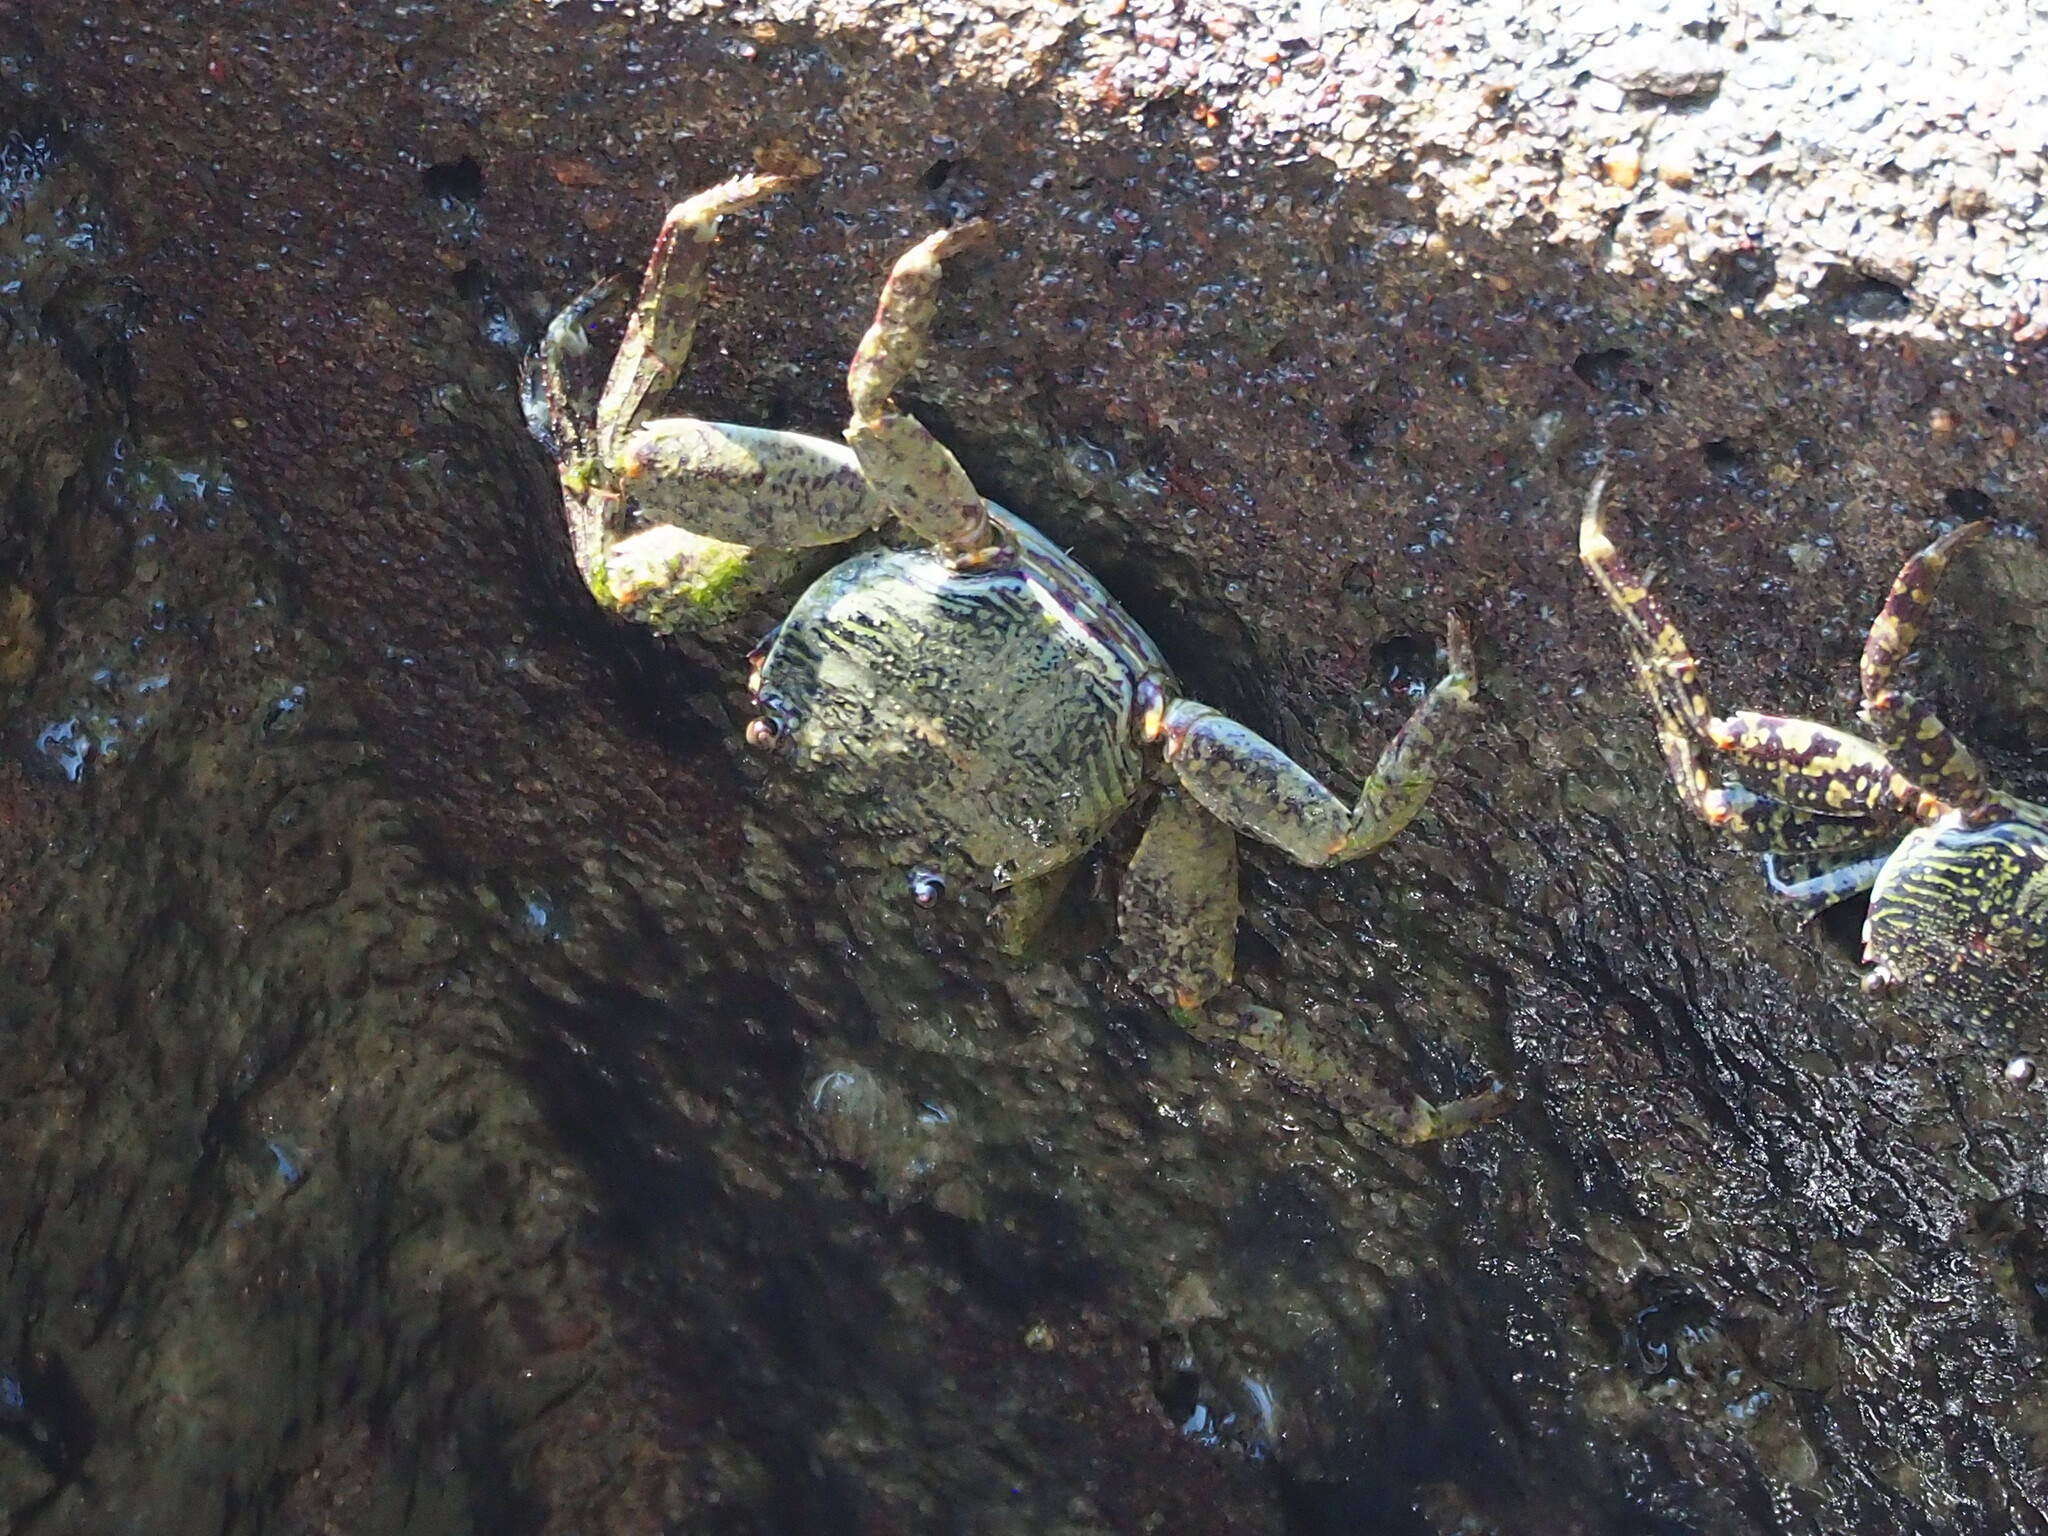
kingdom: Animalia
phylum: Arthropoda
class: Malacostraca
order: Decapoda
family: Grapsidae
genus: Grapsus
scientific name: Grapsus albolineatus
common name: Mottled lightfoot crab
